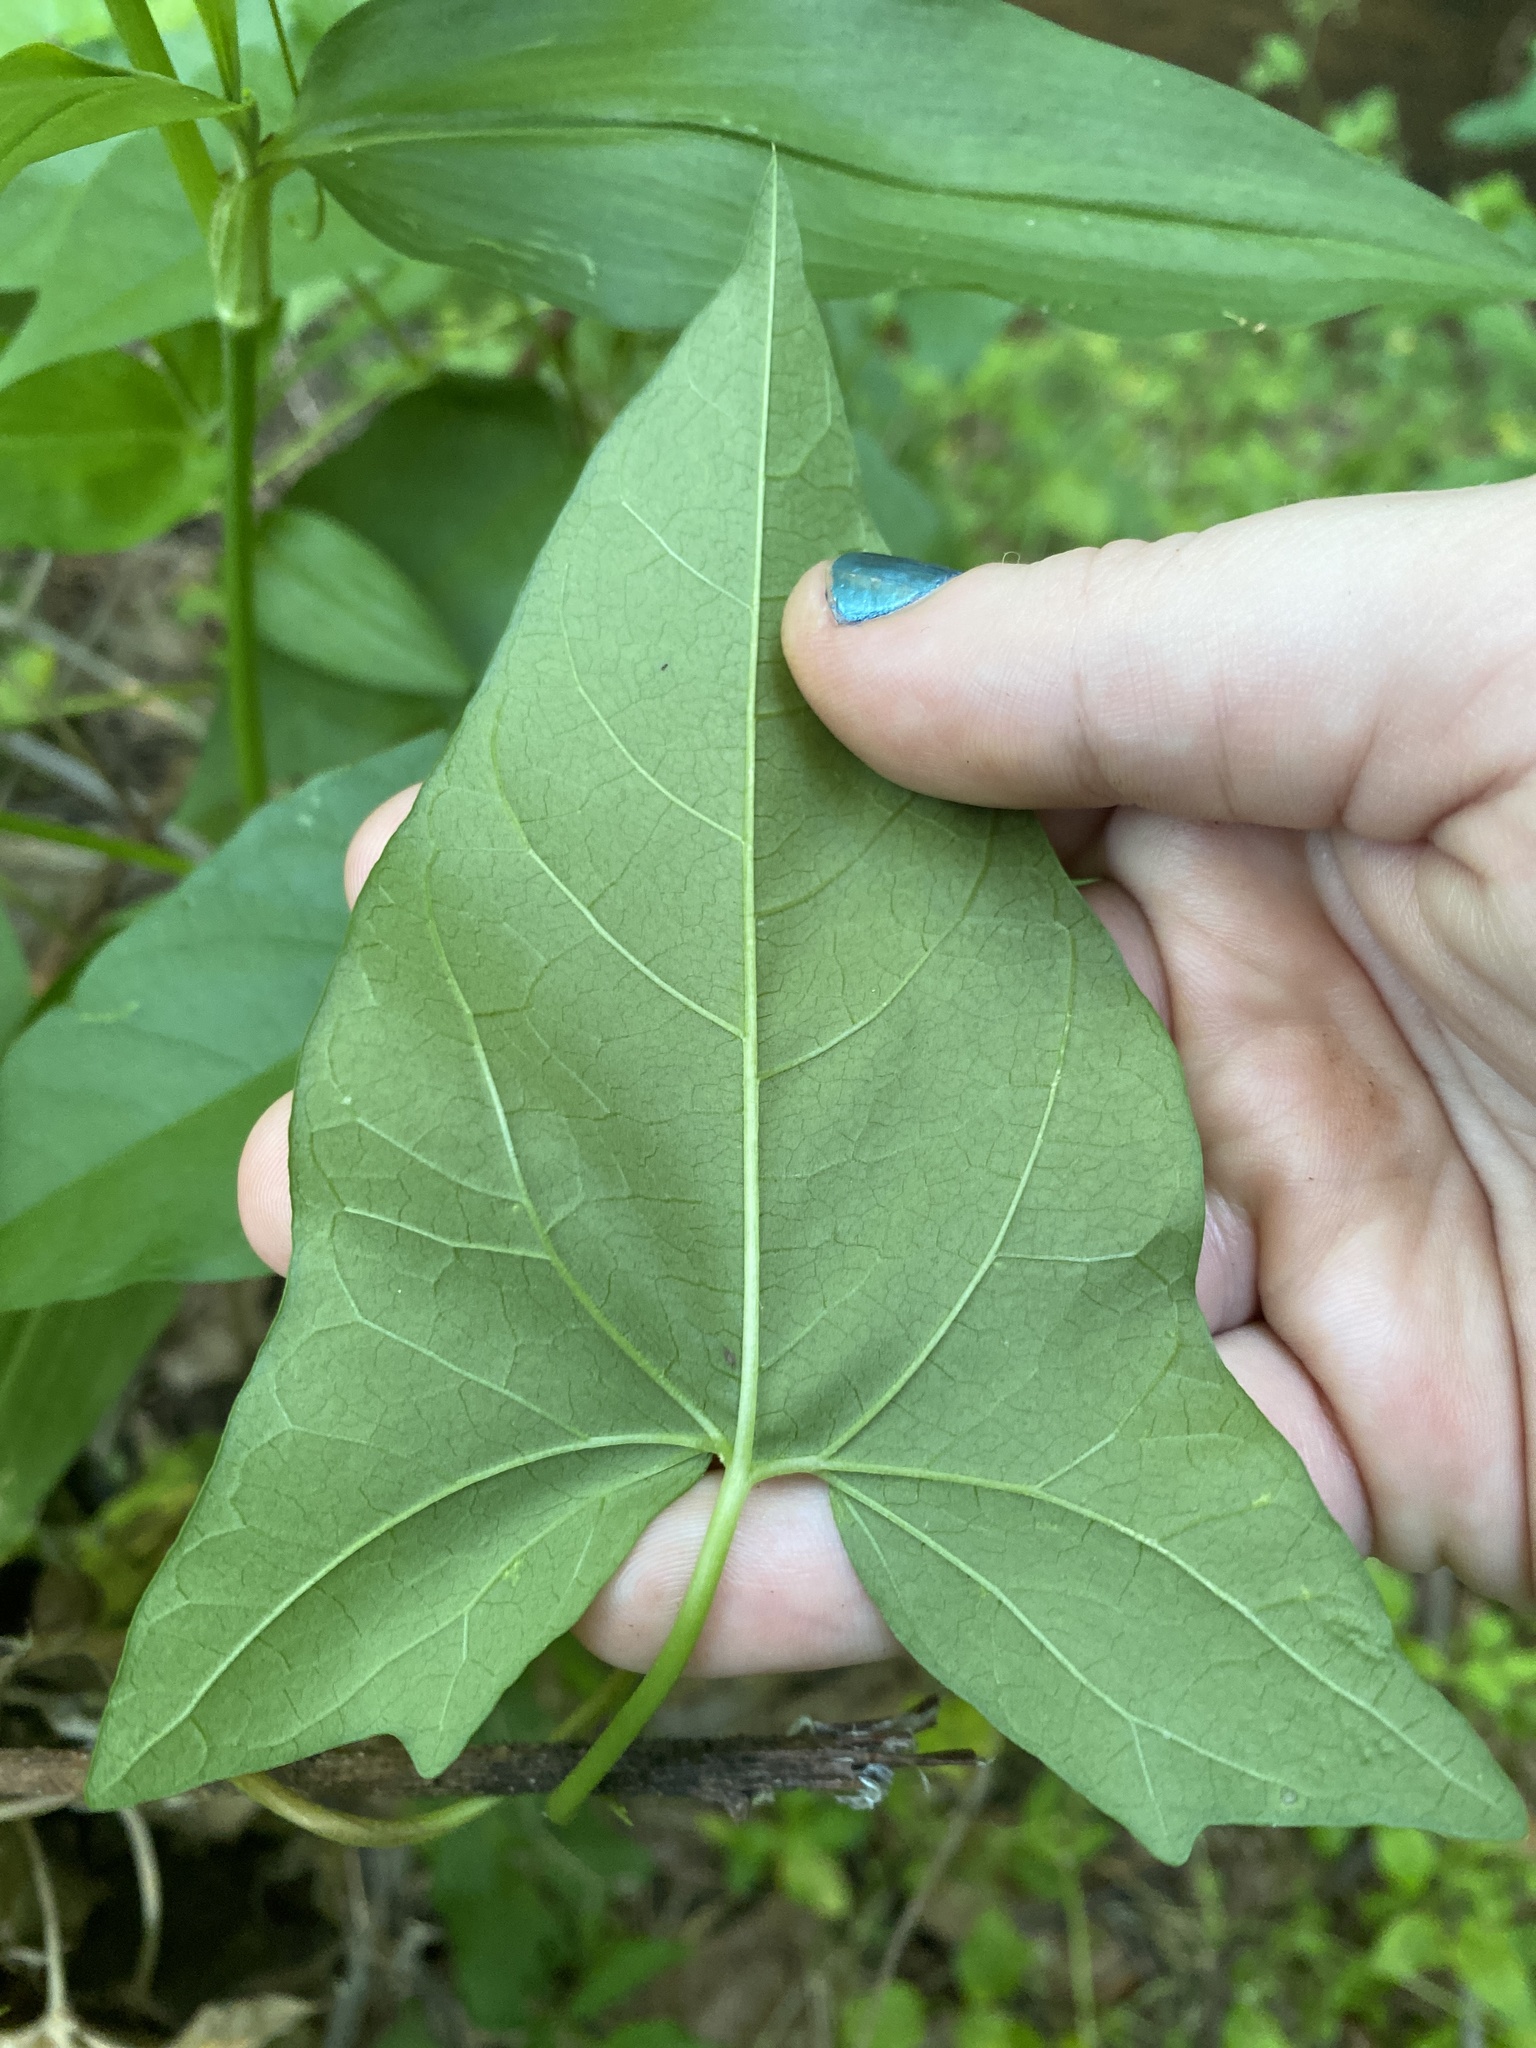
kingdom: Plantae
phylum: Tracheophyta
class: Magnoliopsida
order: Solanales
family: Convolvulaceae
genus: Calystegia
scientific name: Calystegia sepium
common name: Hedge bindweed
